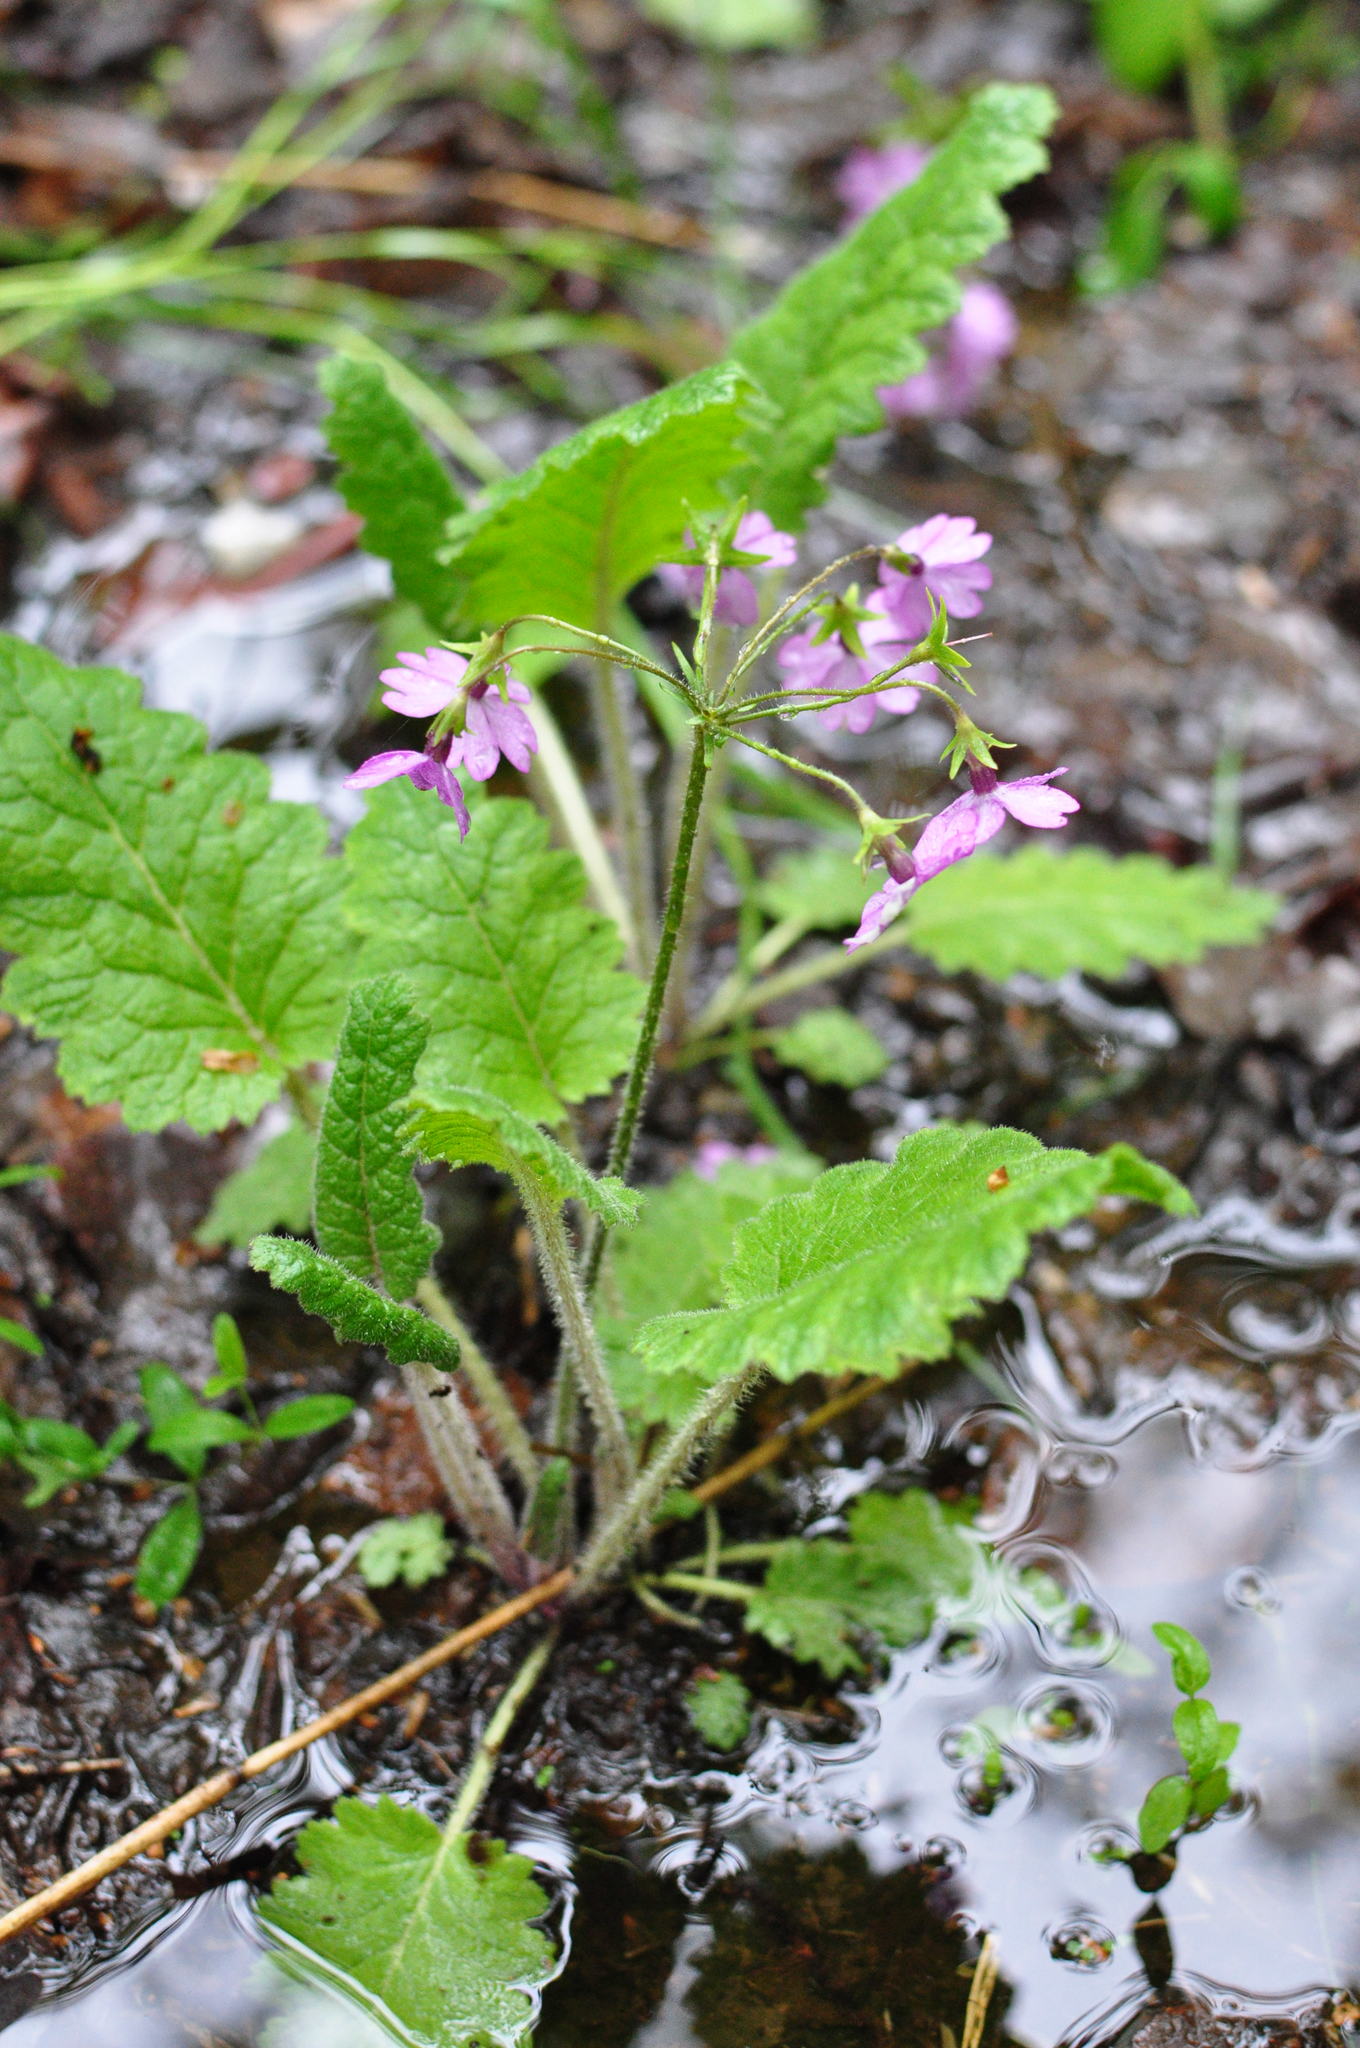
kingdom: Plantae
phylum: Tracheophyta
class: Magnoliopsida
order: Ericales
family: Primulaceae
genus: Primula
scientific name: Primula sieboldii
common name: Japanese primrose
